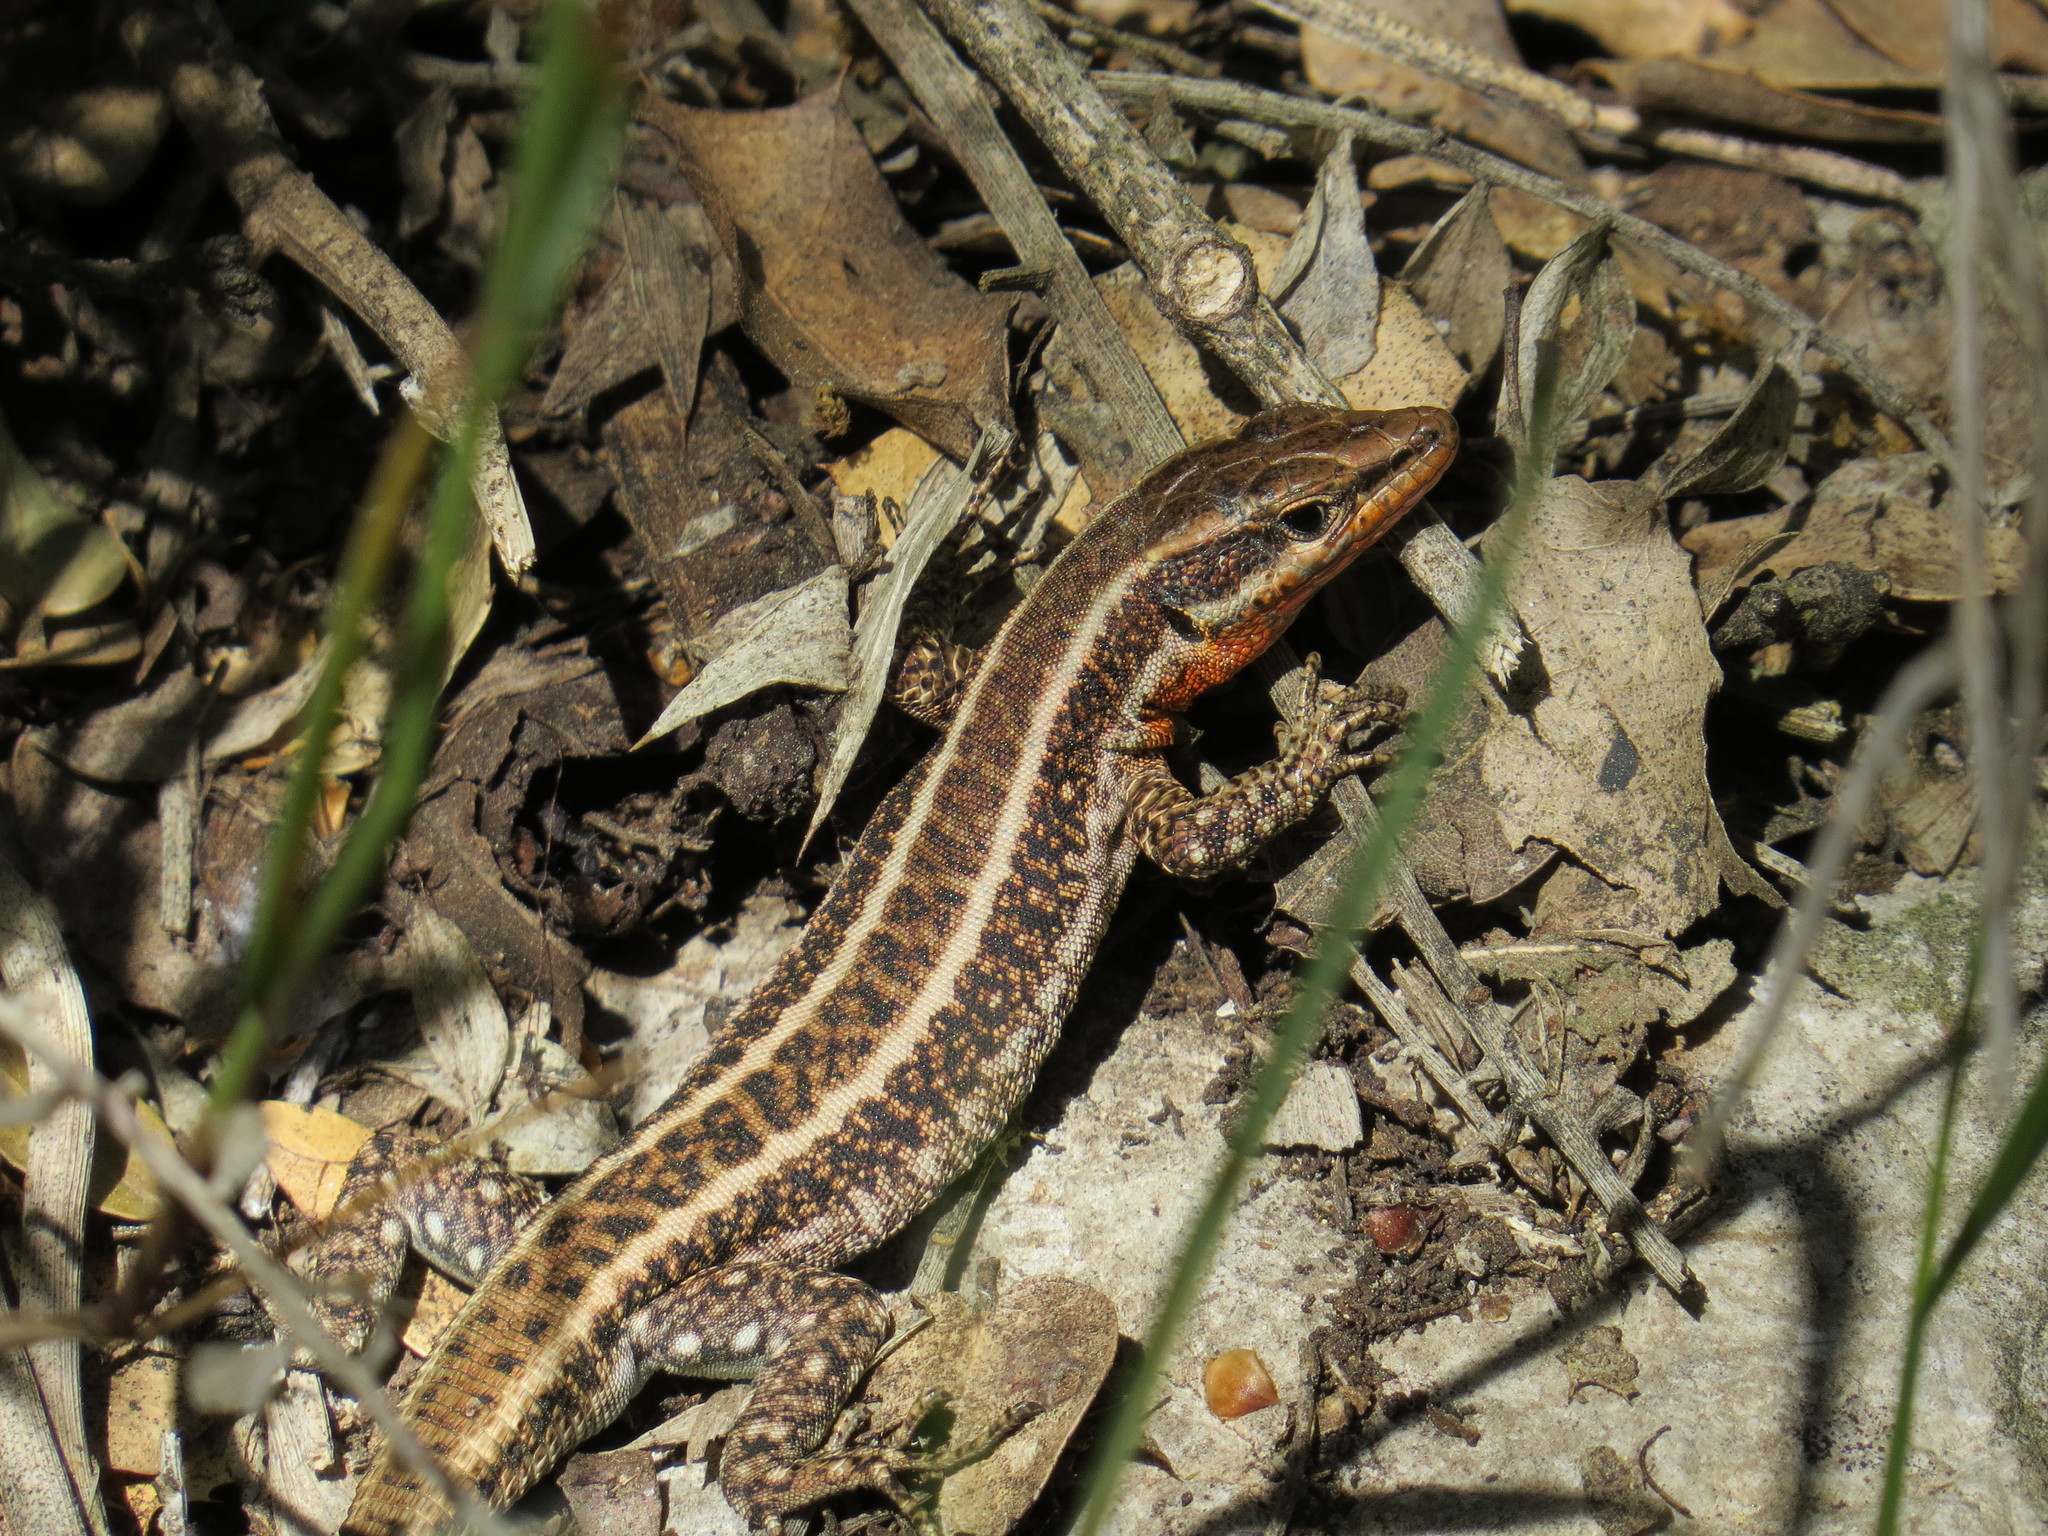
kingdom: Animalia
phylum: Chordata
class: Squamata
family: Lacertidae
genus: Anatololacerta
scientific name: Anatololacerta finikensis
